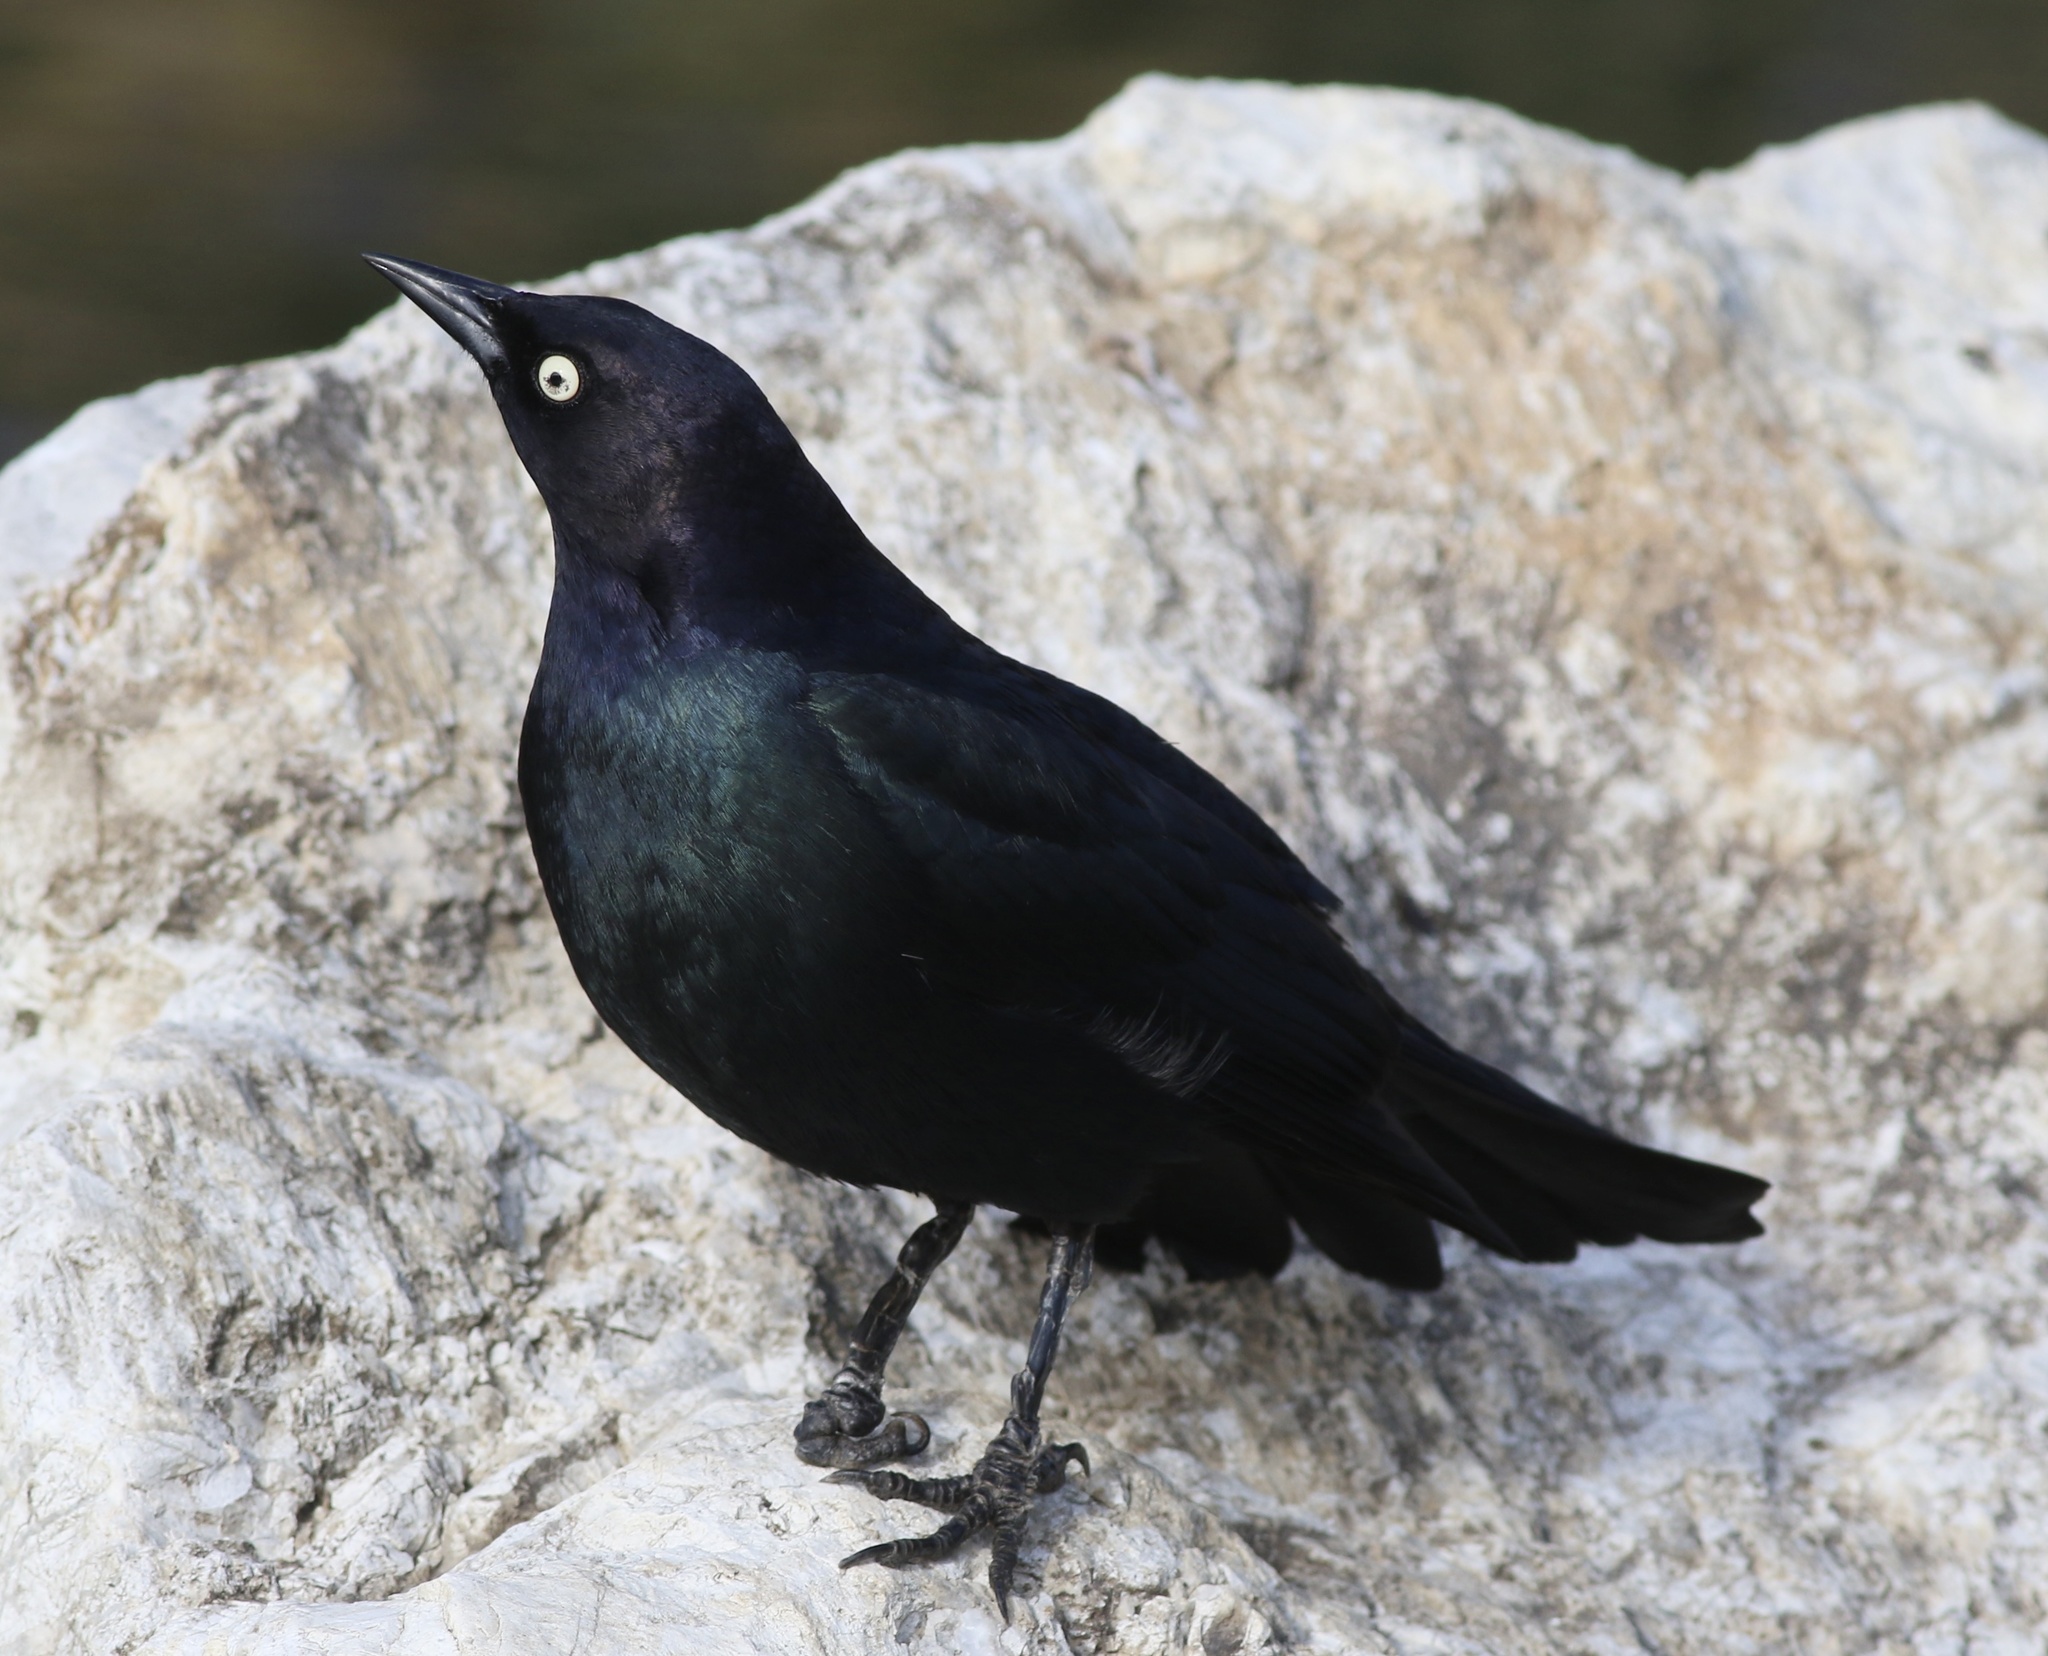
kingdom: Animalia
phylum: Chordata
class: Aves
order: Passeriformes
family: Icteridae
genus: Euphagus
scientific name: Euphagus cyanocephalus
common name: Brewer's blackbird
